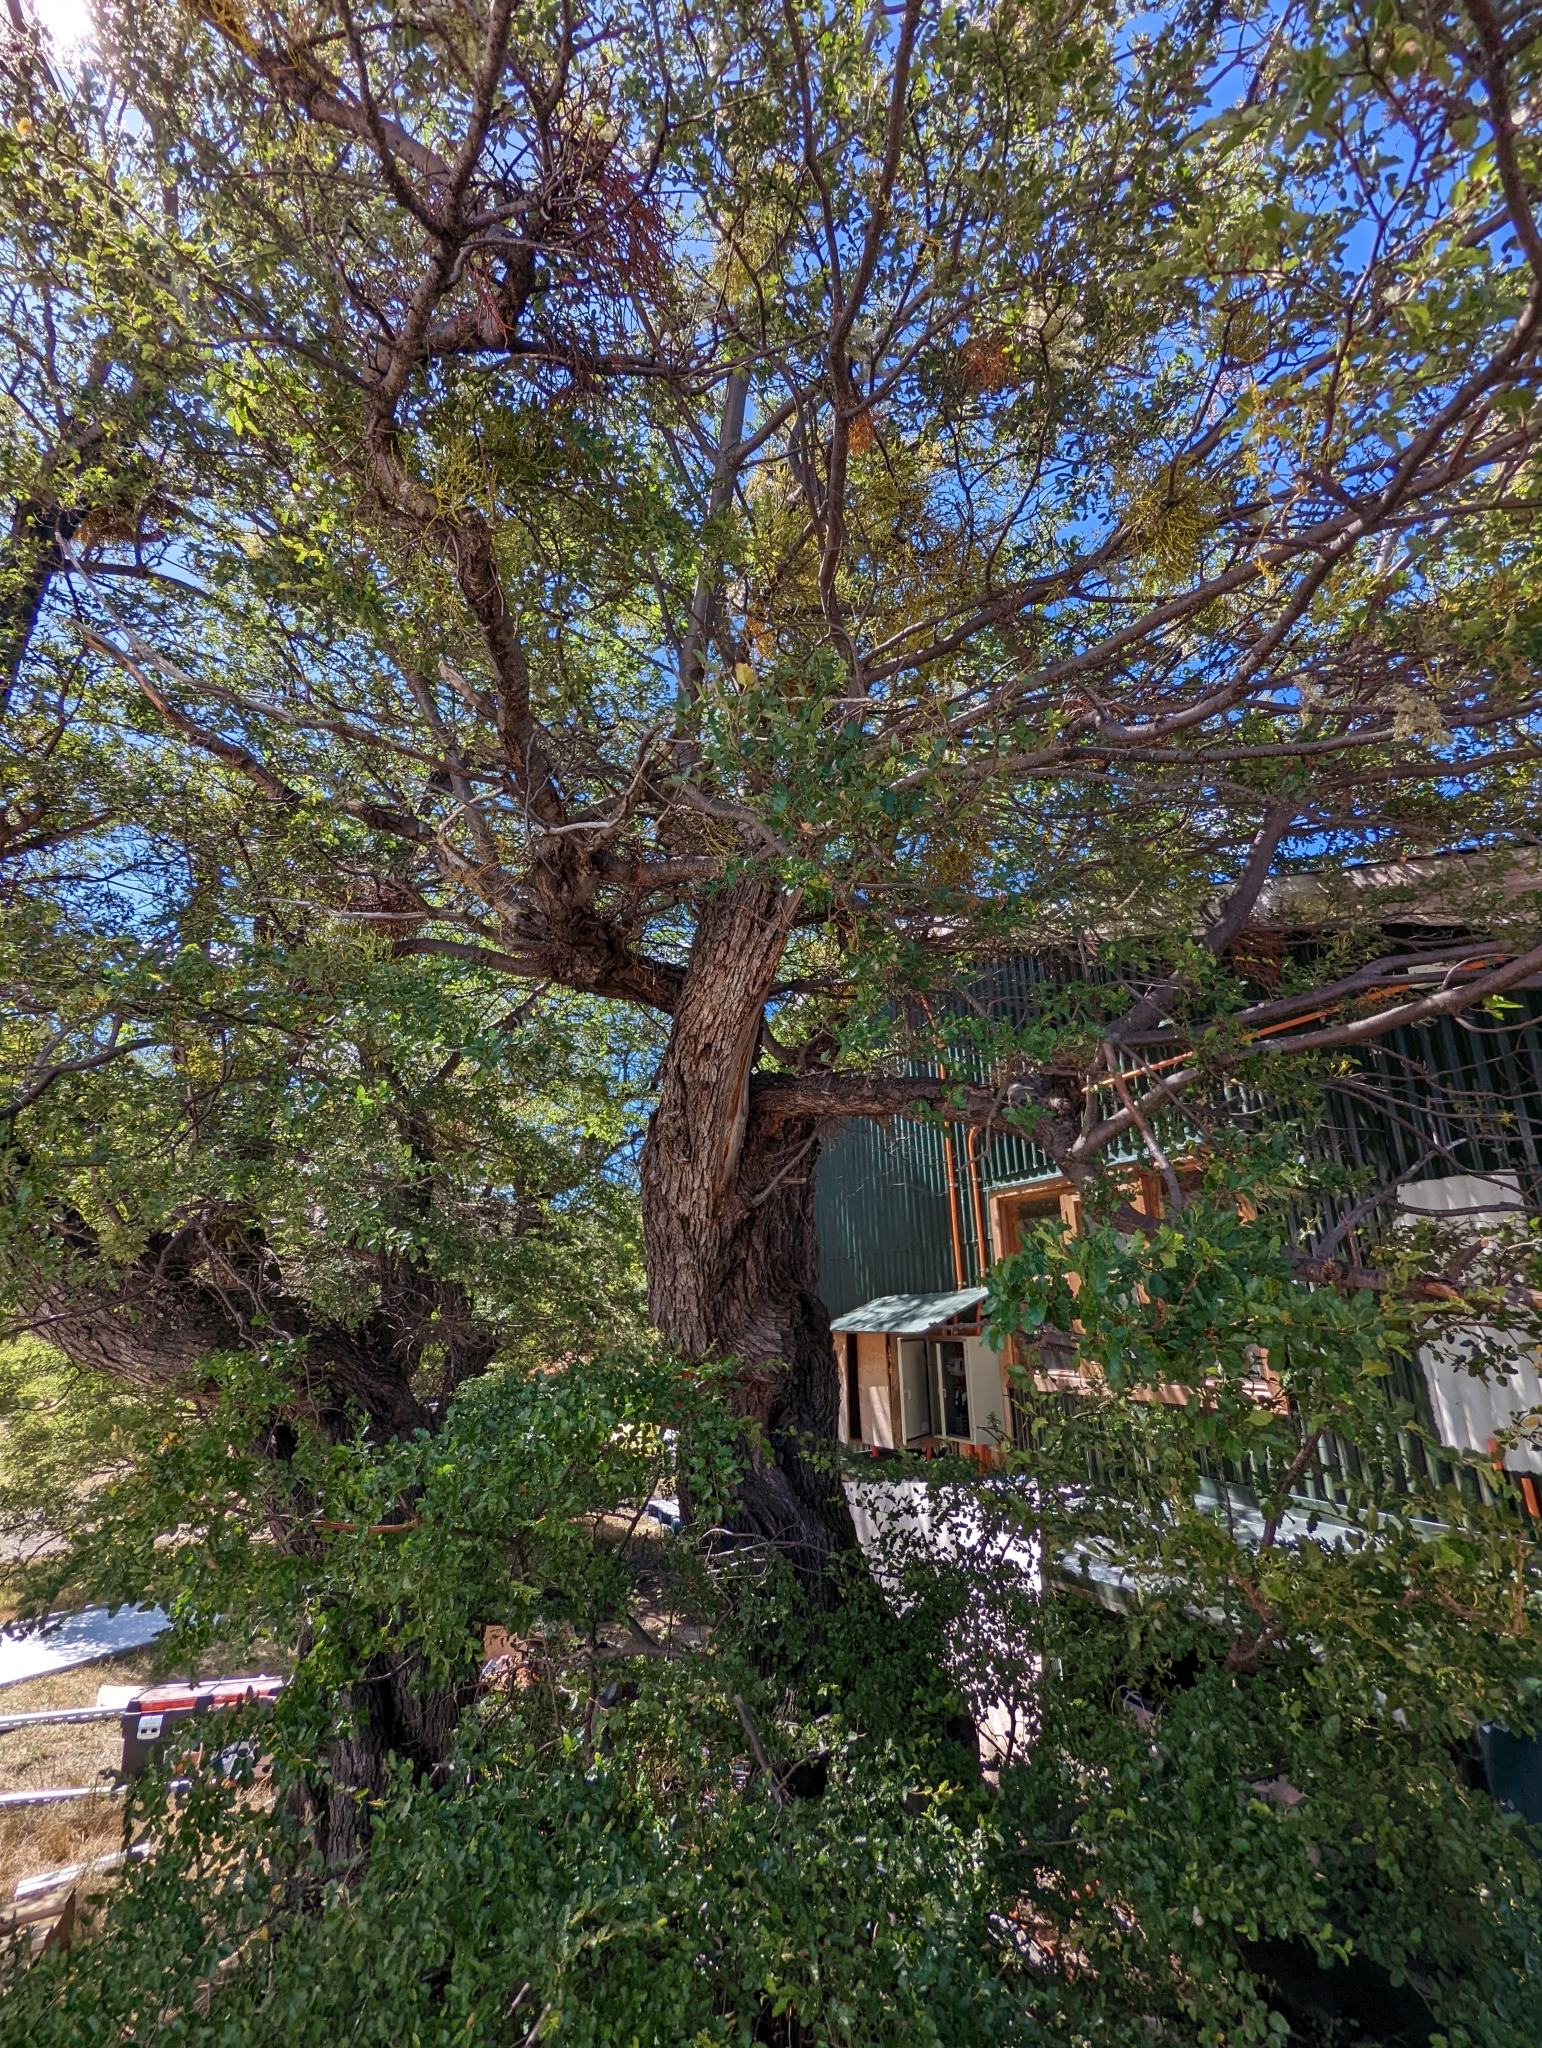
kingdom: Plantae
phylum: Tracheophyta
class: Magnoliopsida
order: Fagales
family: Nothofagaceae
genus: Nothofagus
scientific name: Nothofagus antarctica
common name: Antarctic beech
